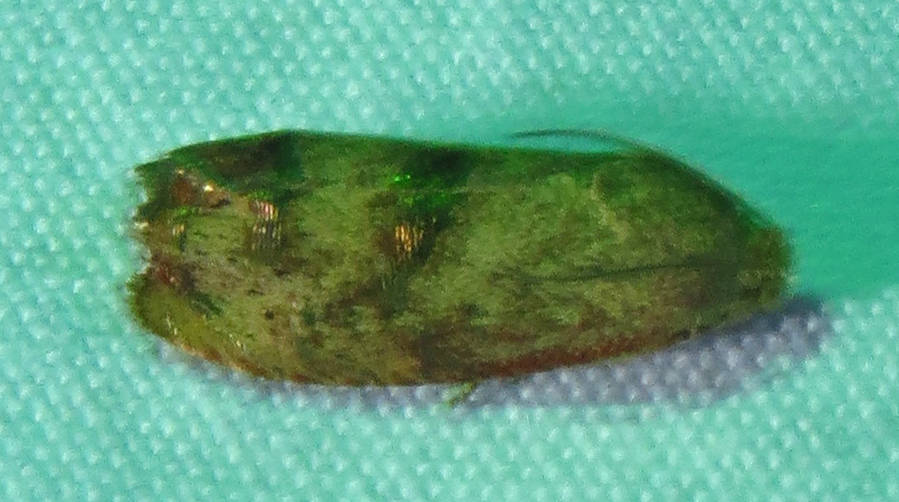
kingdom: Animalia
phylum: Arthropoda
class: Insecta
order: Lepidoptera
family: Tortricidae
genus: Cydia
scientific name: Cydia latiferreana
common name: Filbertworm moth
